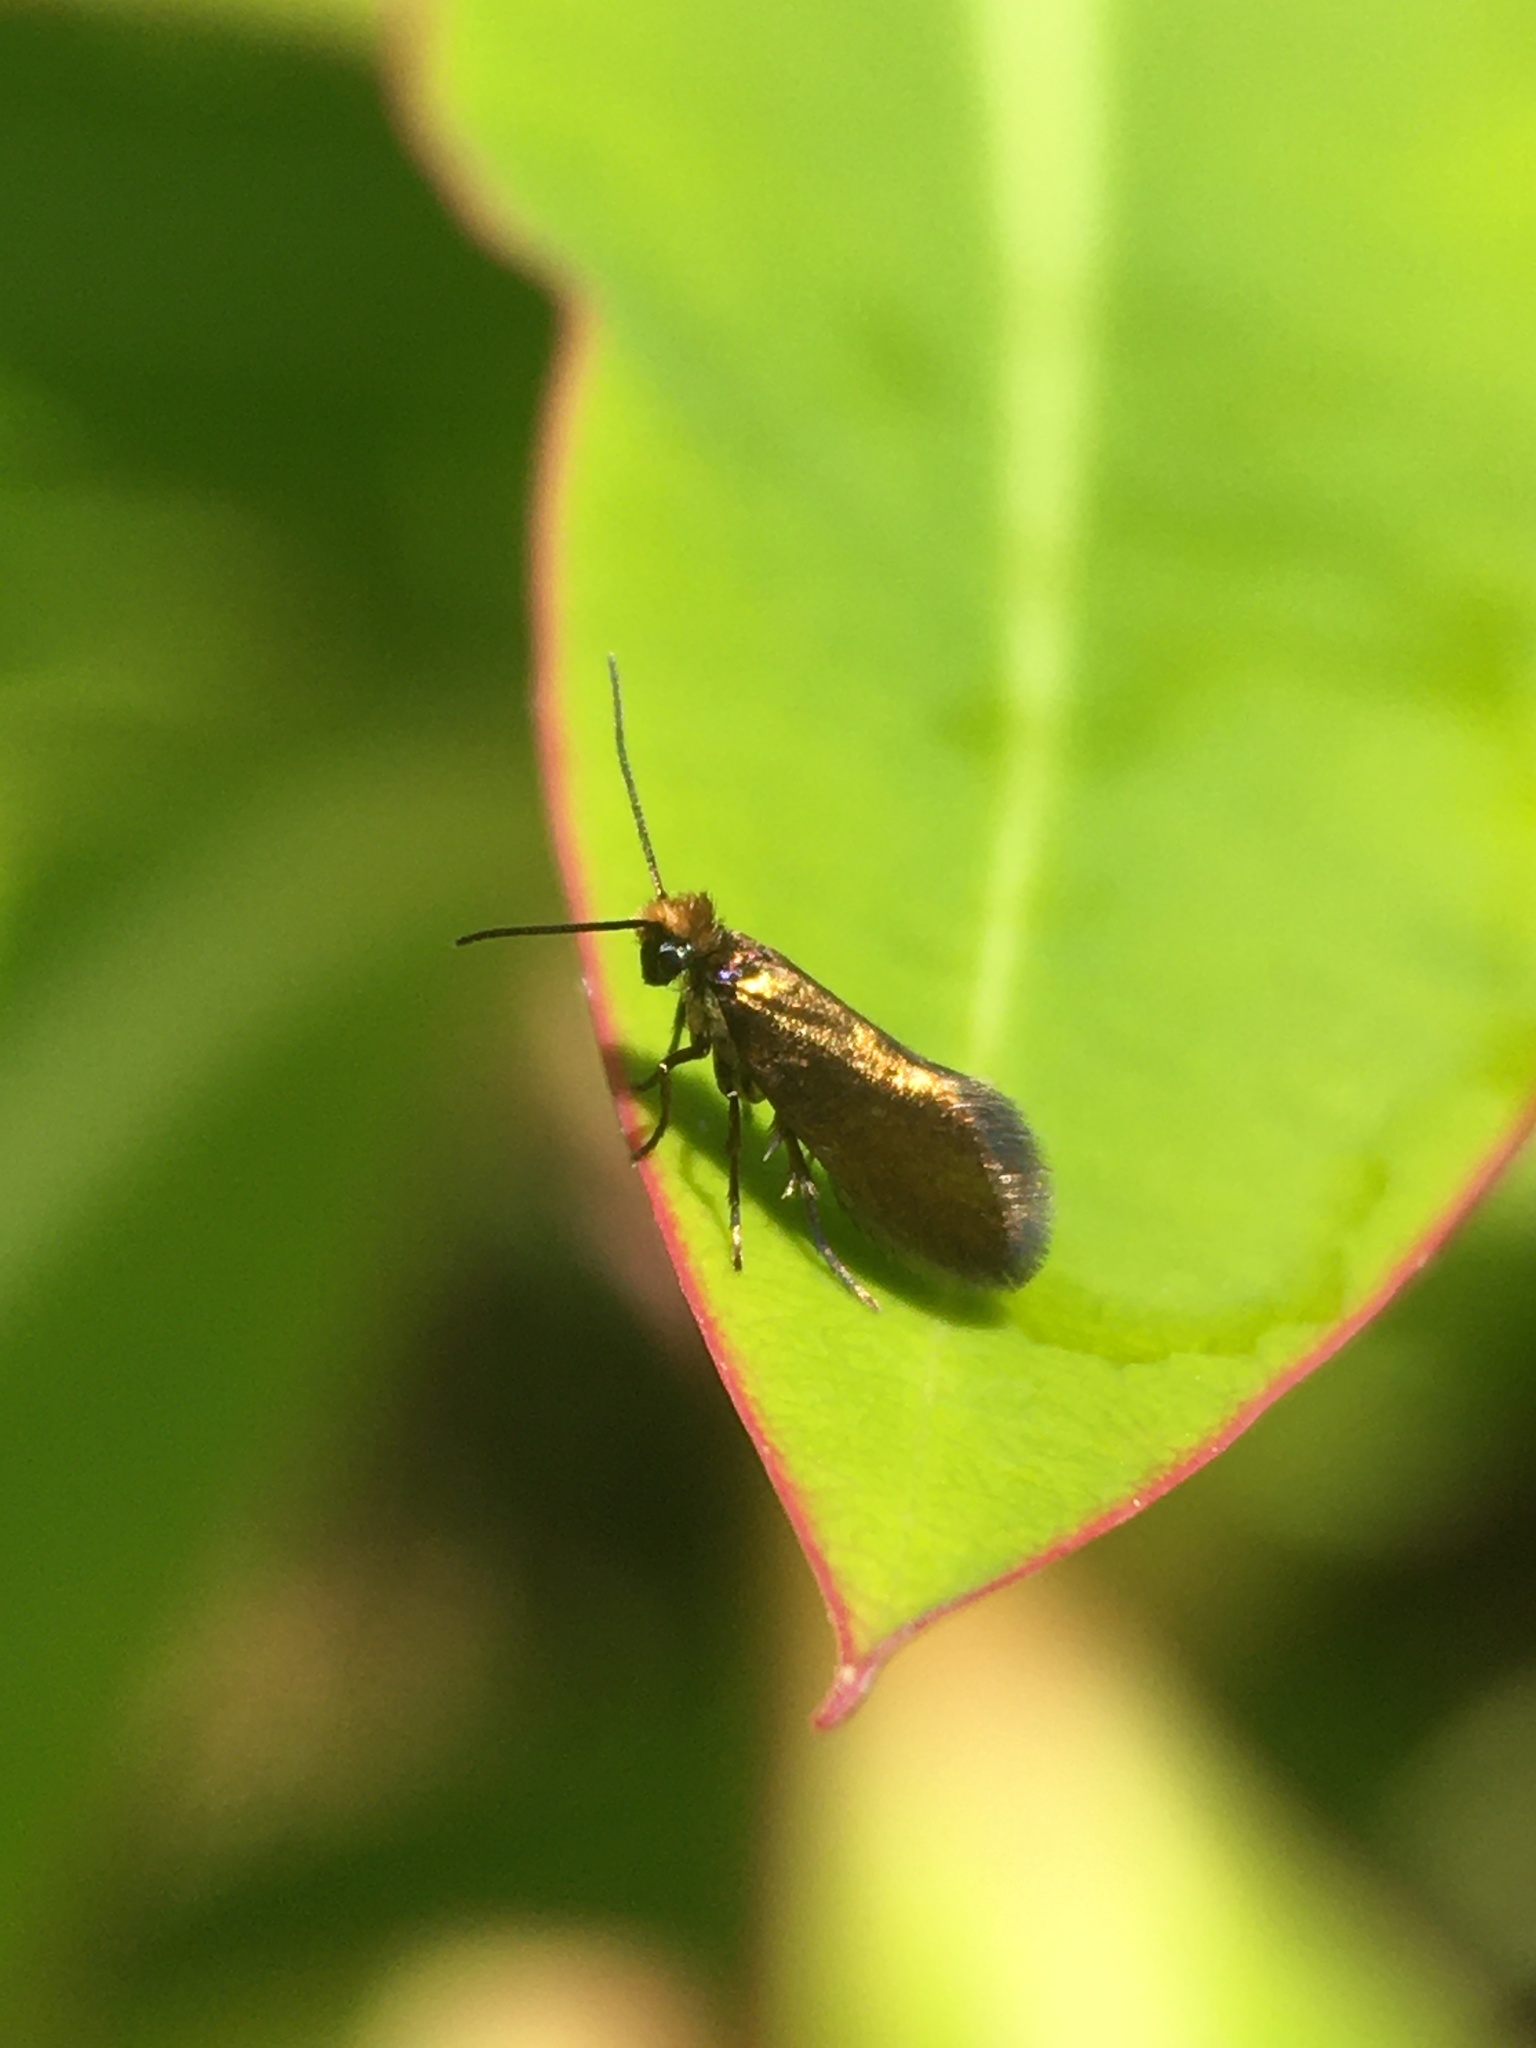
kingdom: Animalia
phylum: Arthropoda
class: Insecta
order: Lepidoptera
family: Micropterigidae
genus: Micropterix
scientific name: Micropterix calthella
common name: Plain gold
